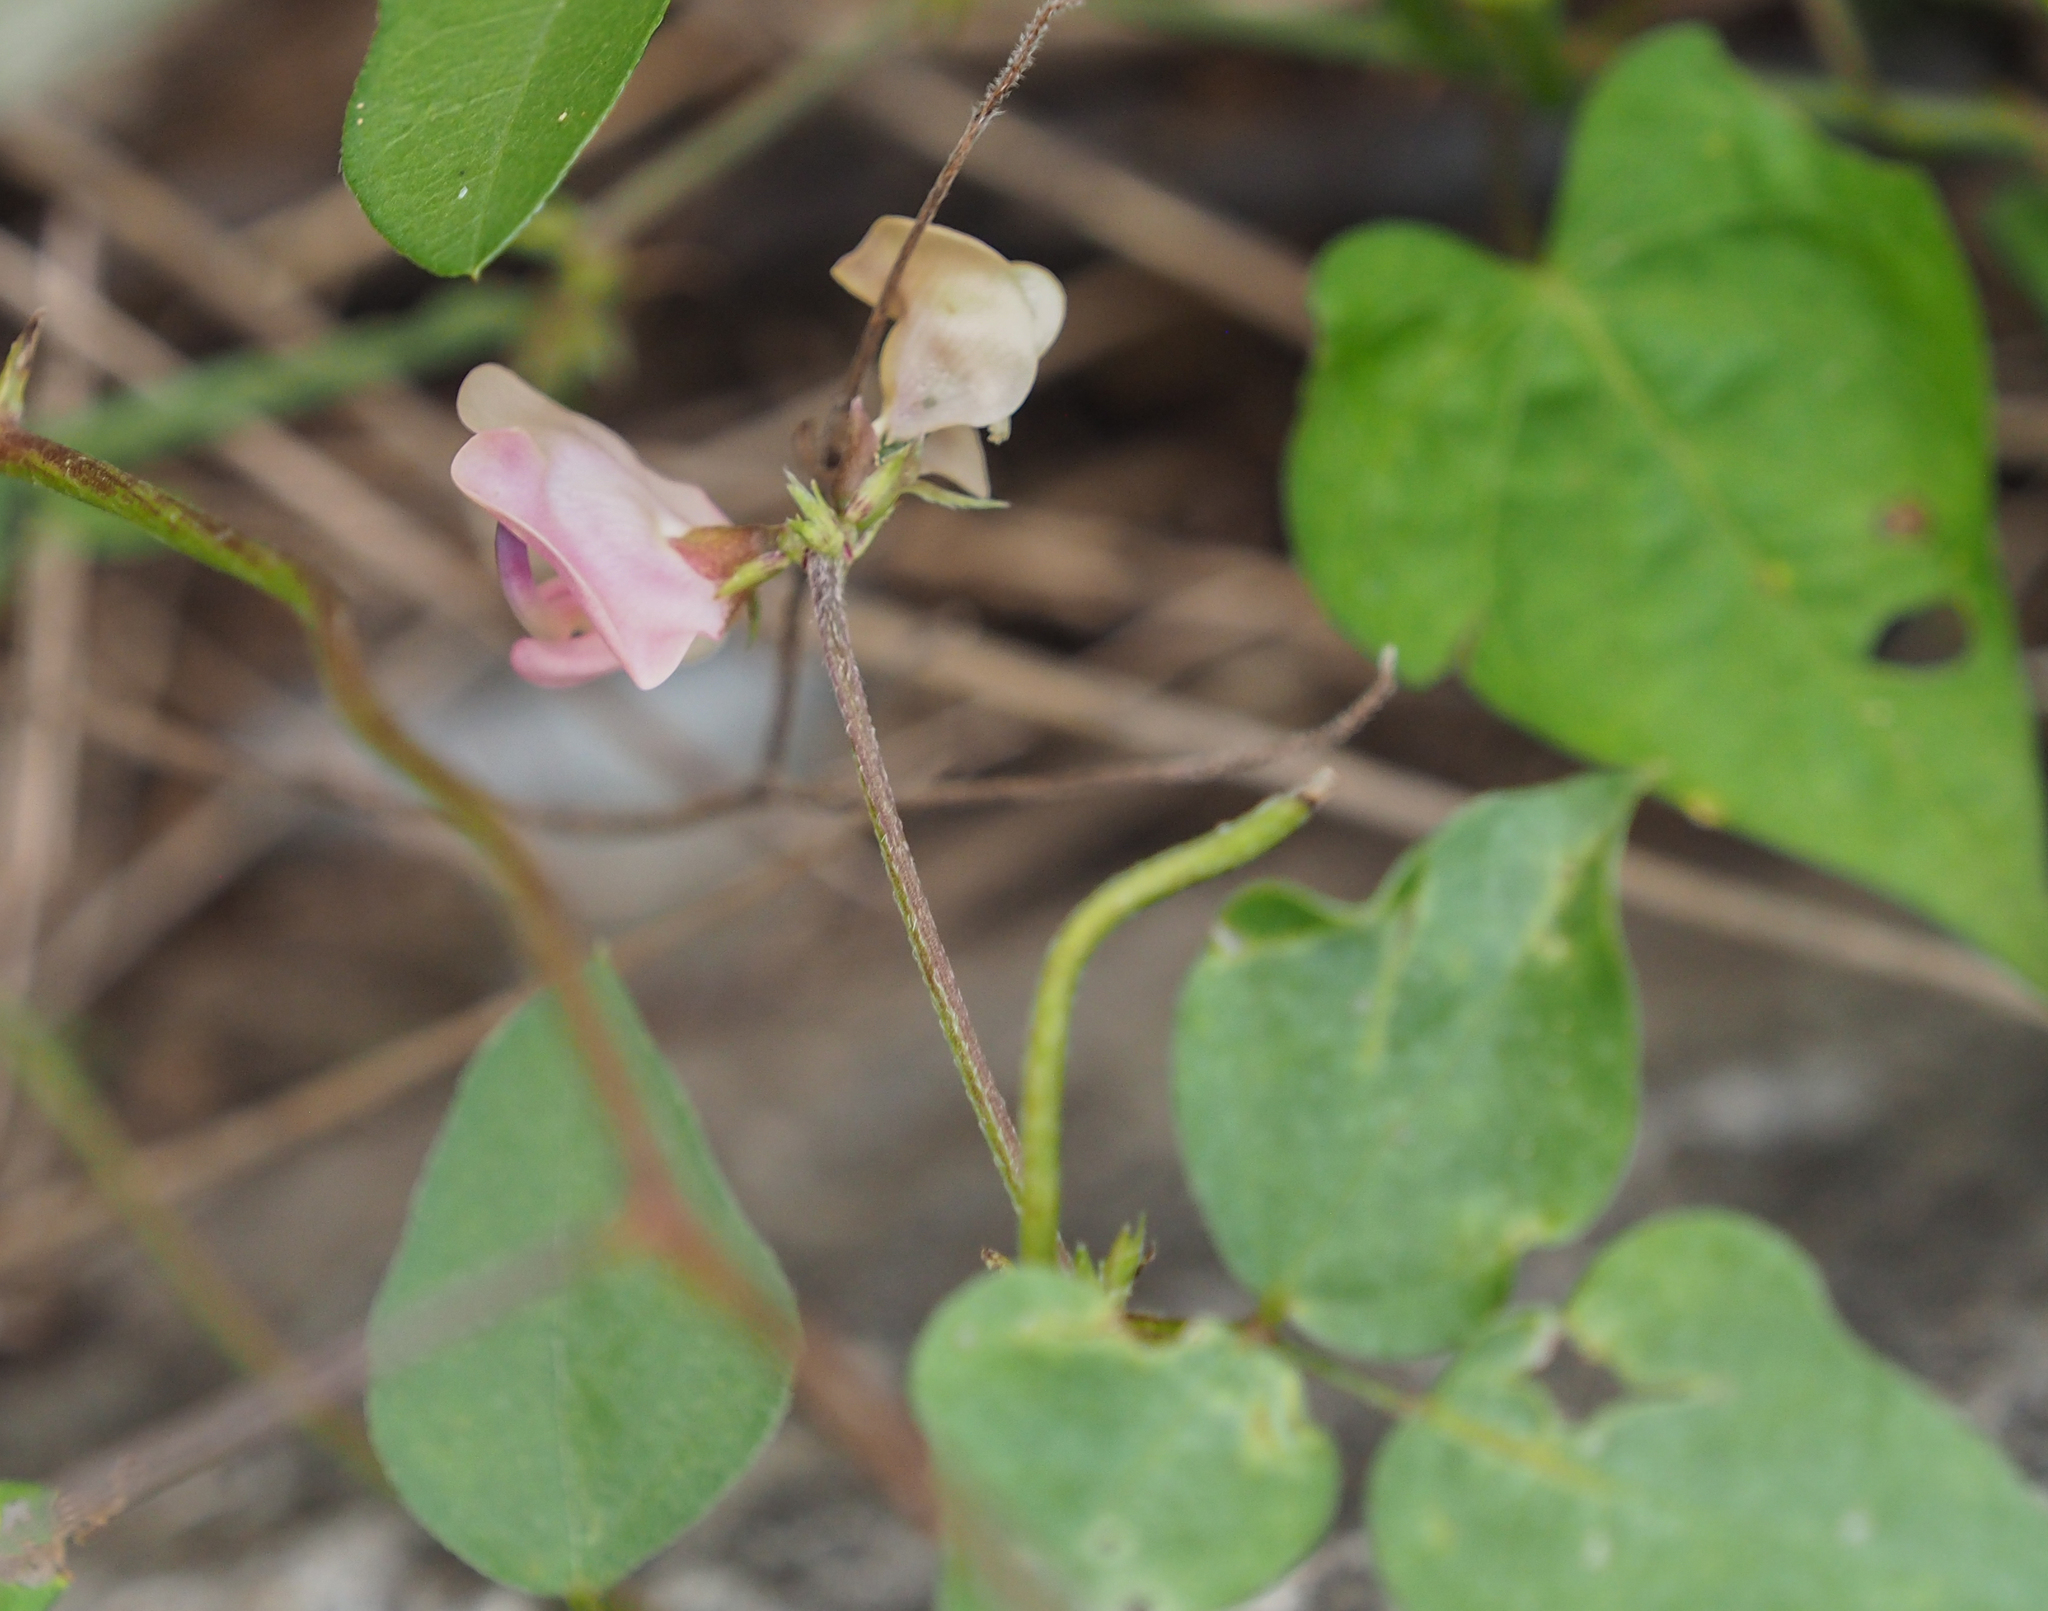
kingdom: Plantae
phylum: Tracheophyta
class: Magnoliopsida
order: Fabales
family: Fabaceae
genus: Strophostyles
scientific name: Strophostyles helvola
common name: Trailing wild bean
